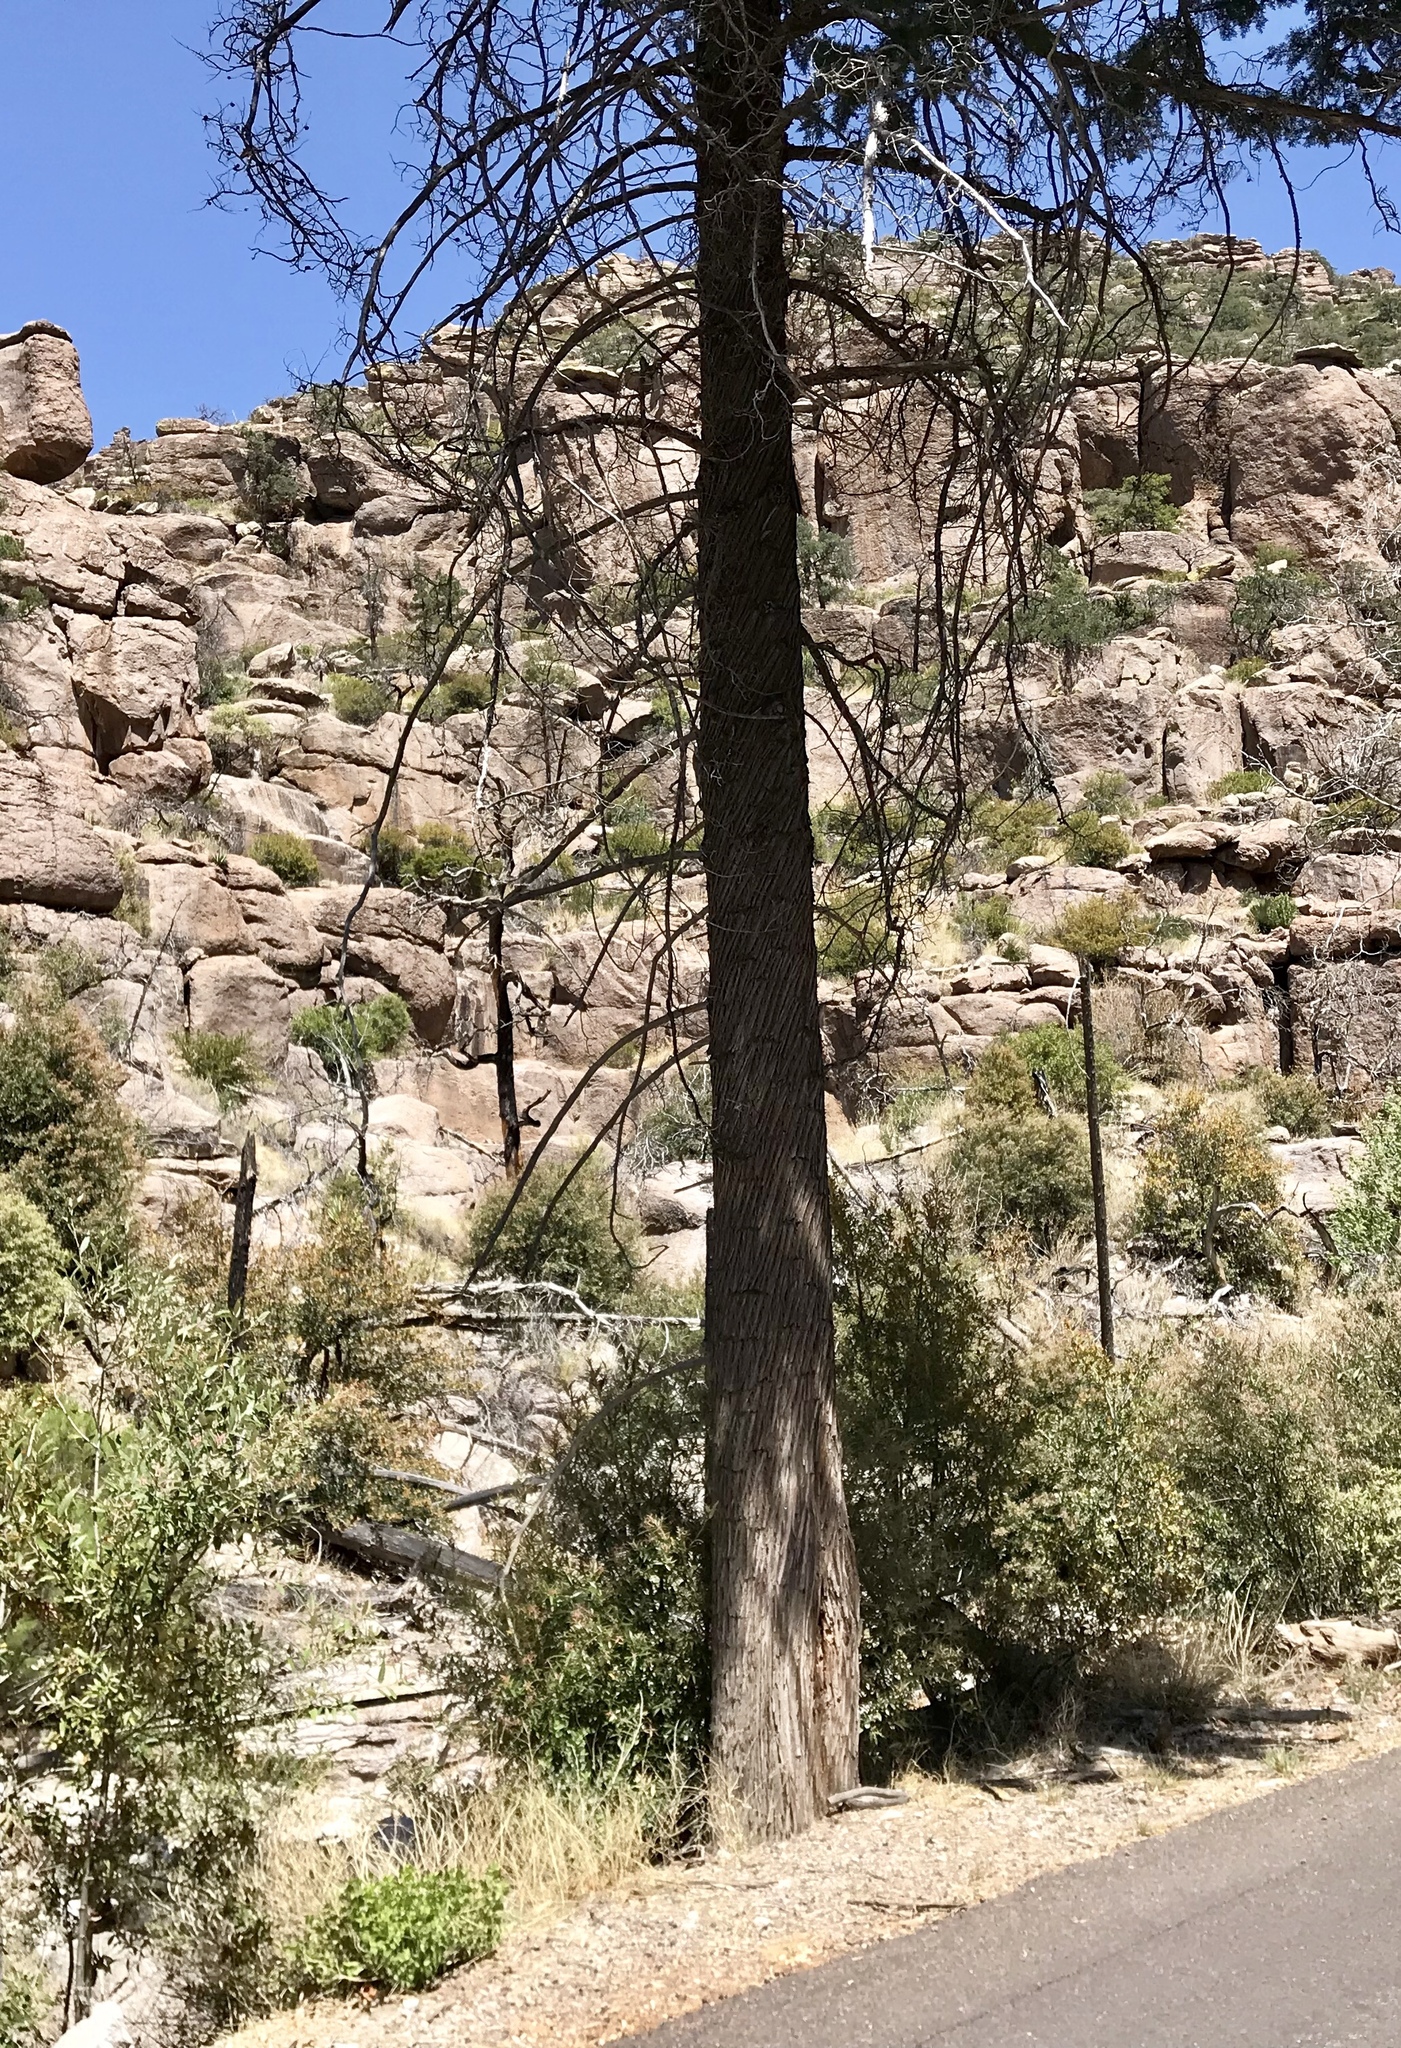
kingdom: Plantae
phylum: Tracheophyta
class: Pinopsida
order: Pinales
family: Cupressaceae
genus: Cupressus
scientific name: Cupressus arizonica
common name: Arizona cypress
